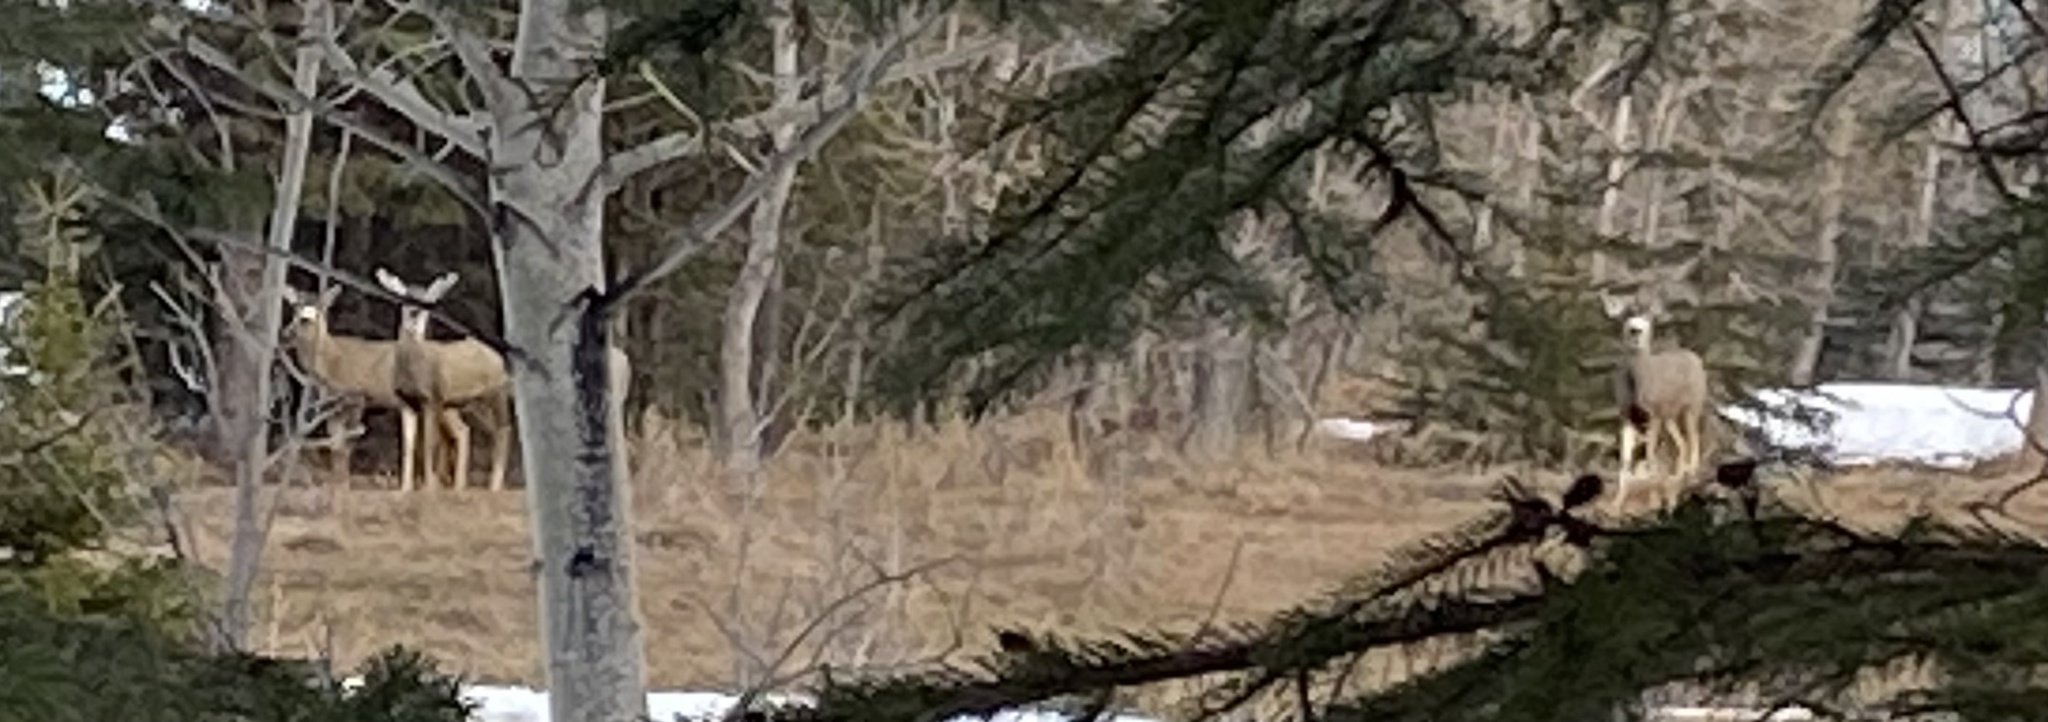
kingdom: Animalia
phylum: Chordata
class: Mammalia
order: Artiodactyla
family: Cervidae
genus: Odocoileus
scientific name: Odocoileus hemionus
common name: Mule deer
